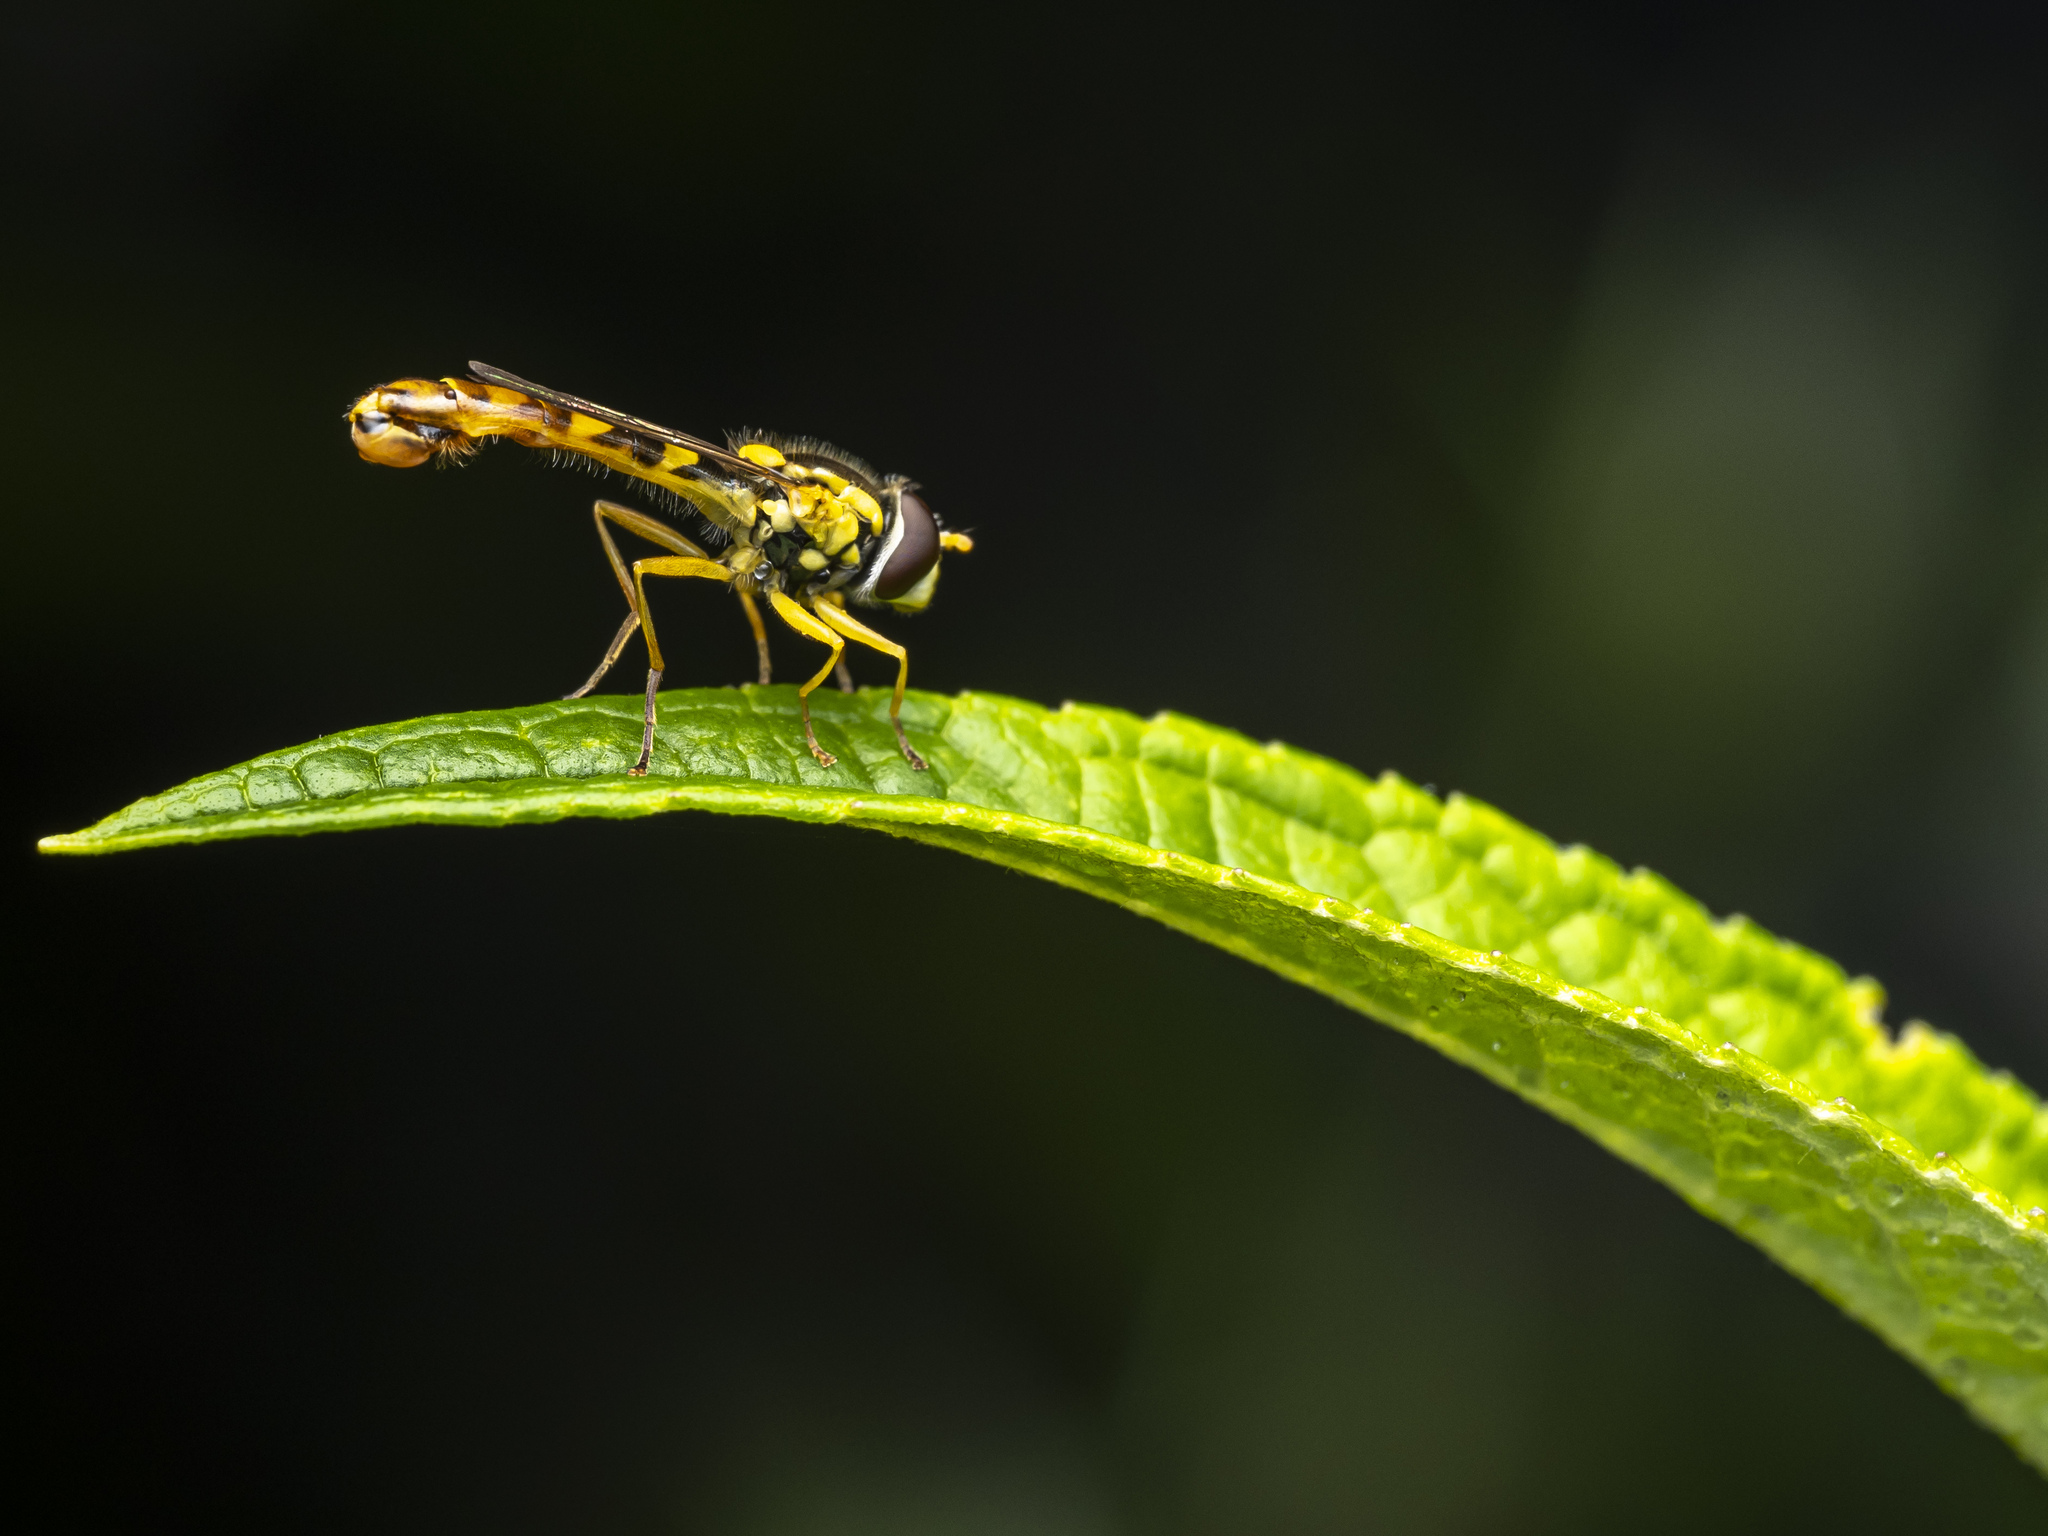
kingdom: Animalia
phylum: Arthropoda
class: Insecta
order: Diptera
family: Syrphidae
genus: Sphaerophoria
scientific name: Sphaerophoria scripta
